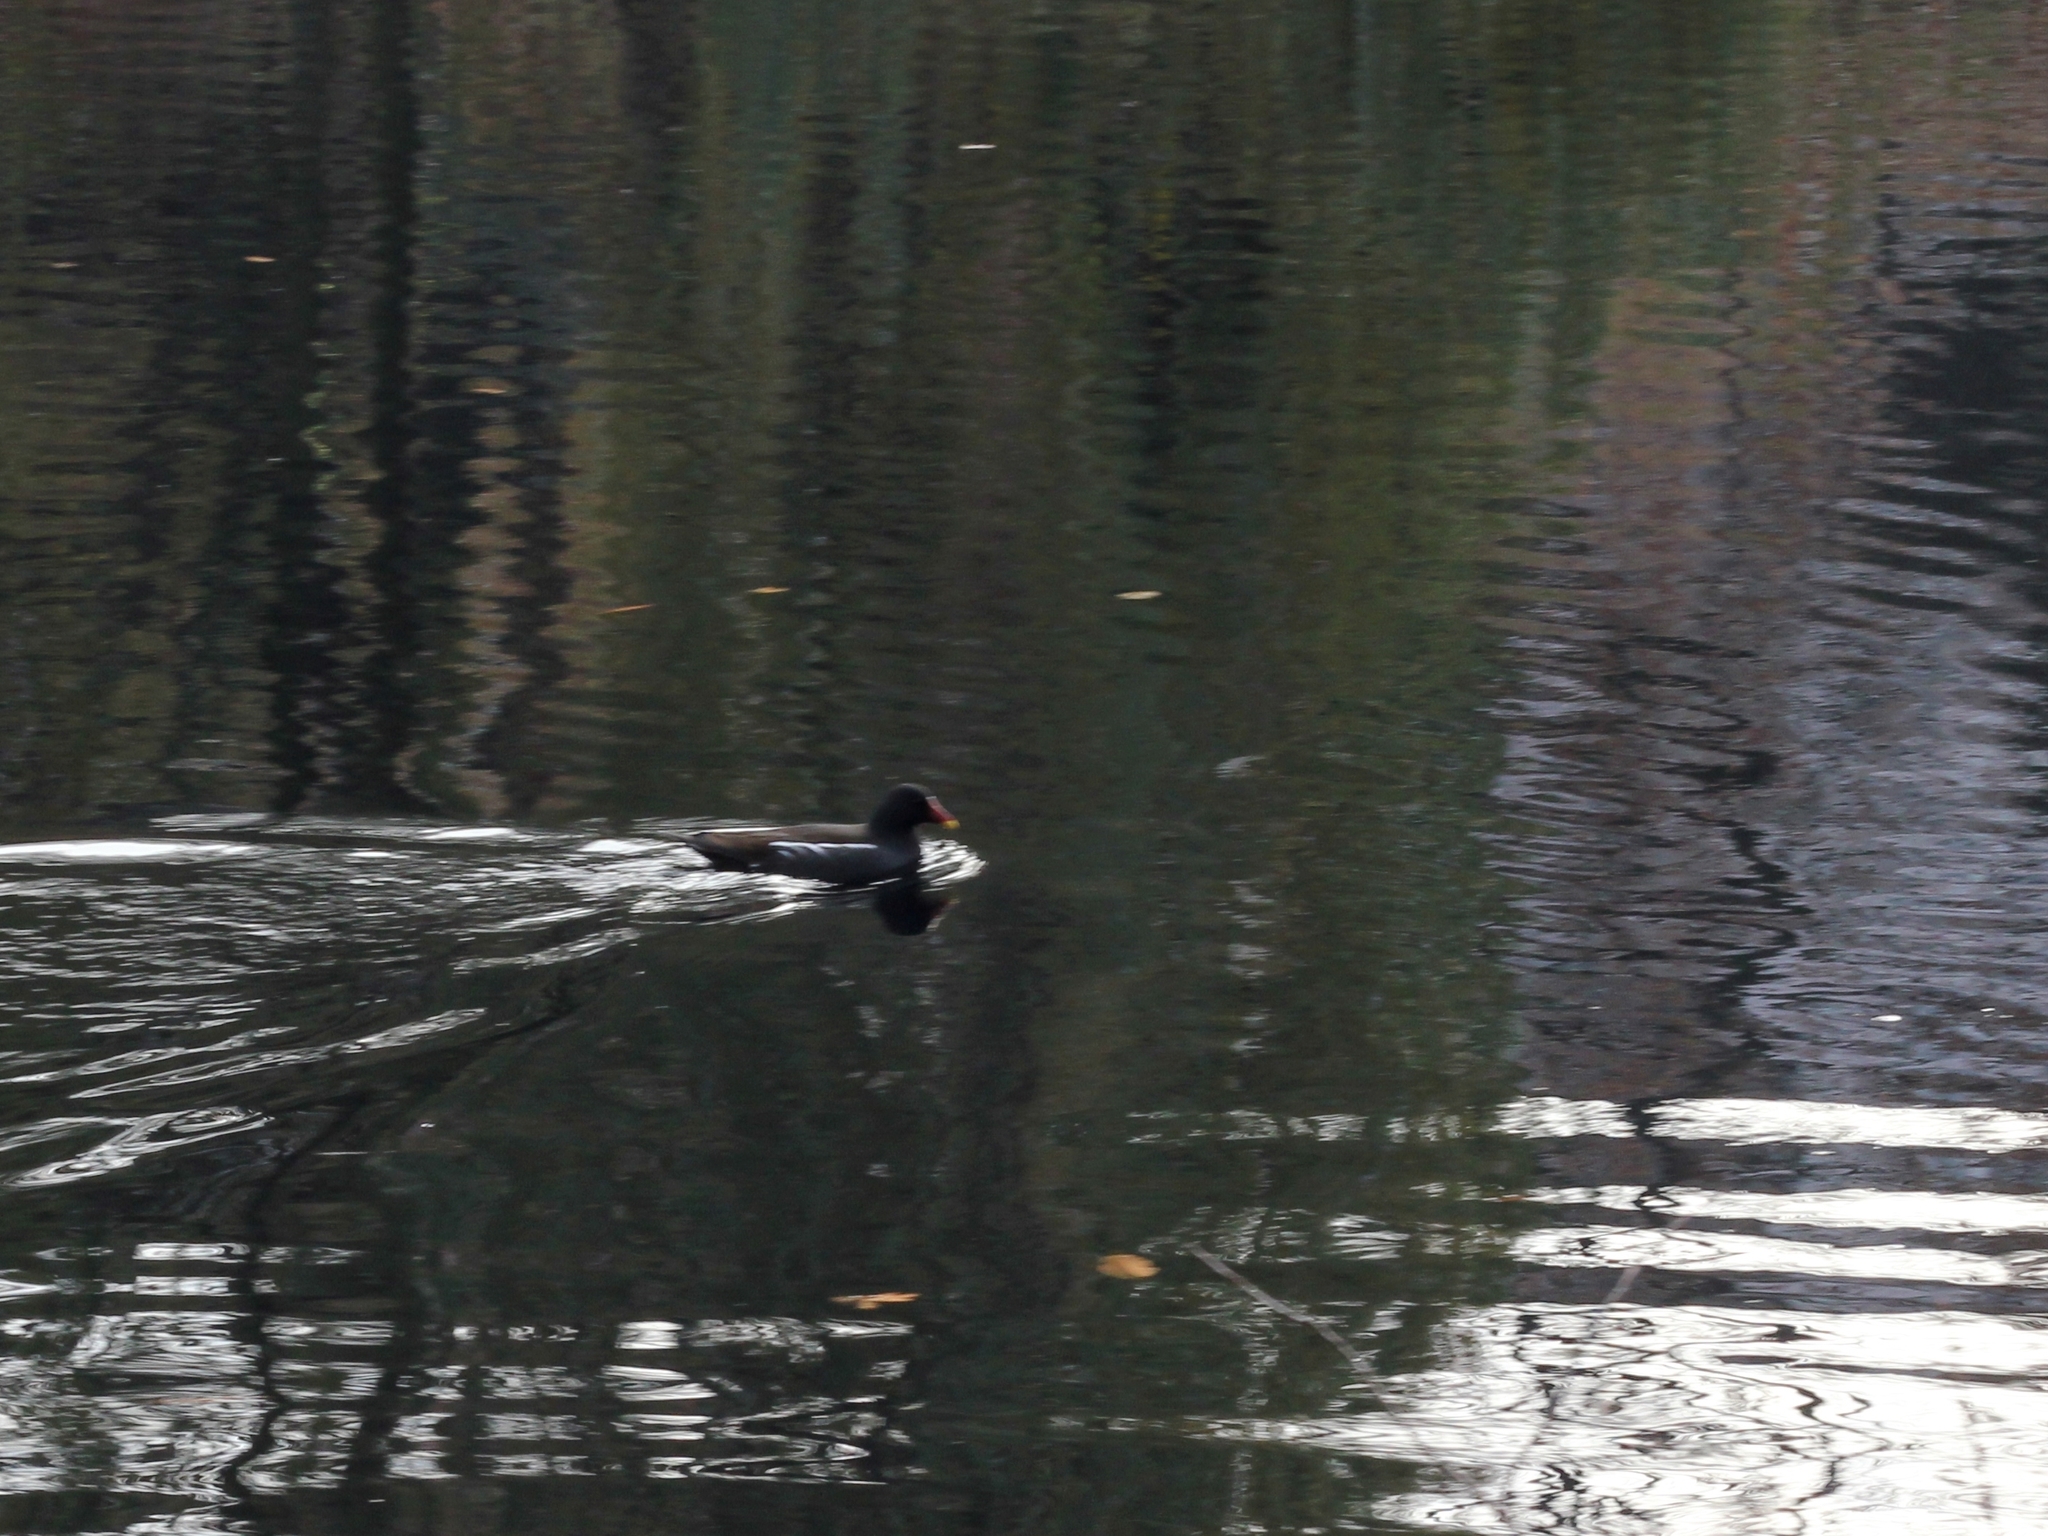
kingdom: Animalia
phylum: Chordata
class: Aves
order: Gruiformes
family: Rallidae
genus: Gallinula
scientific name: Gallinula chloropus
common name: Common moorhen
